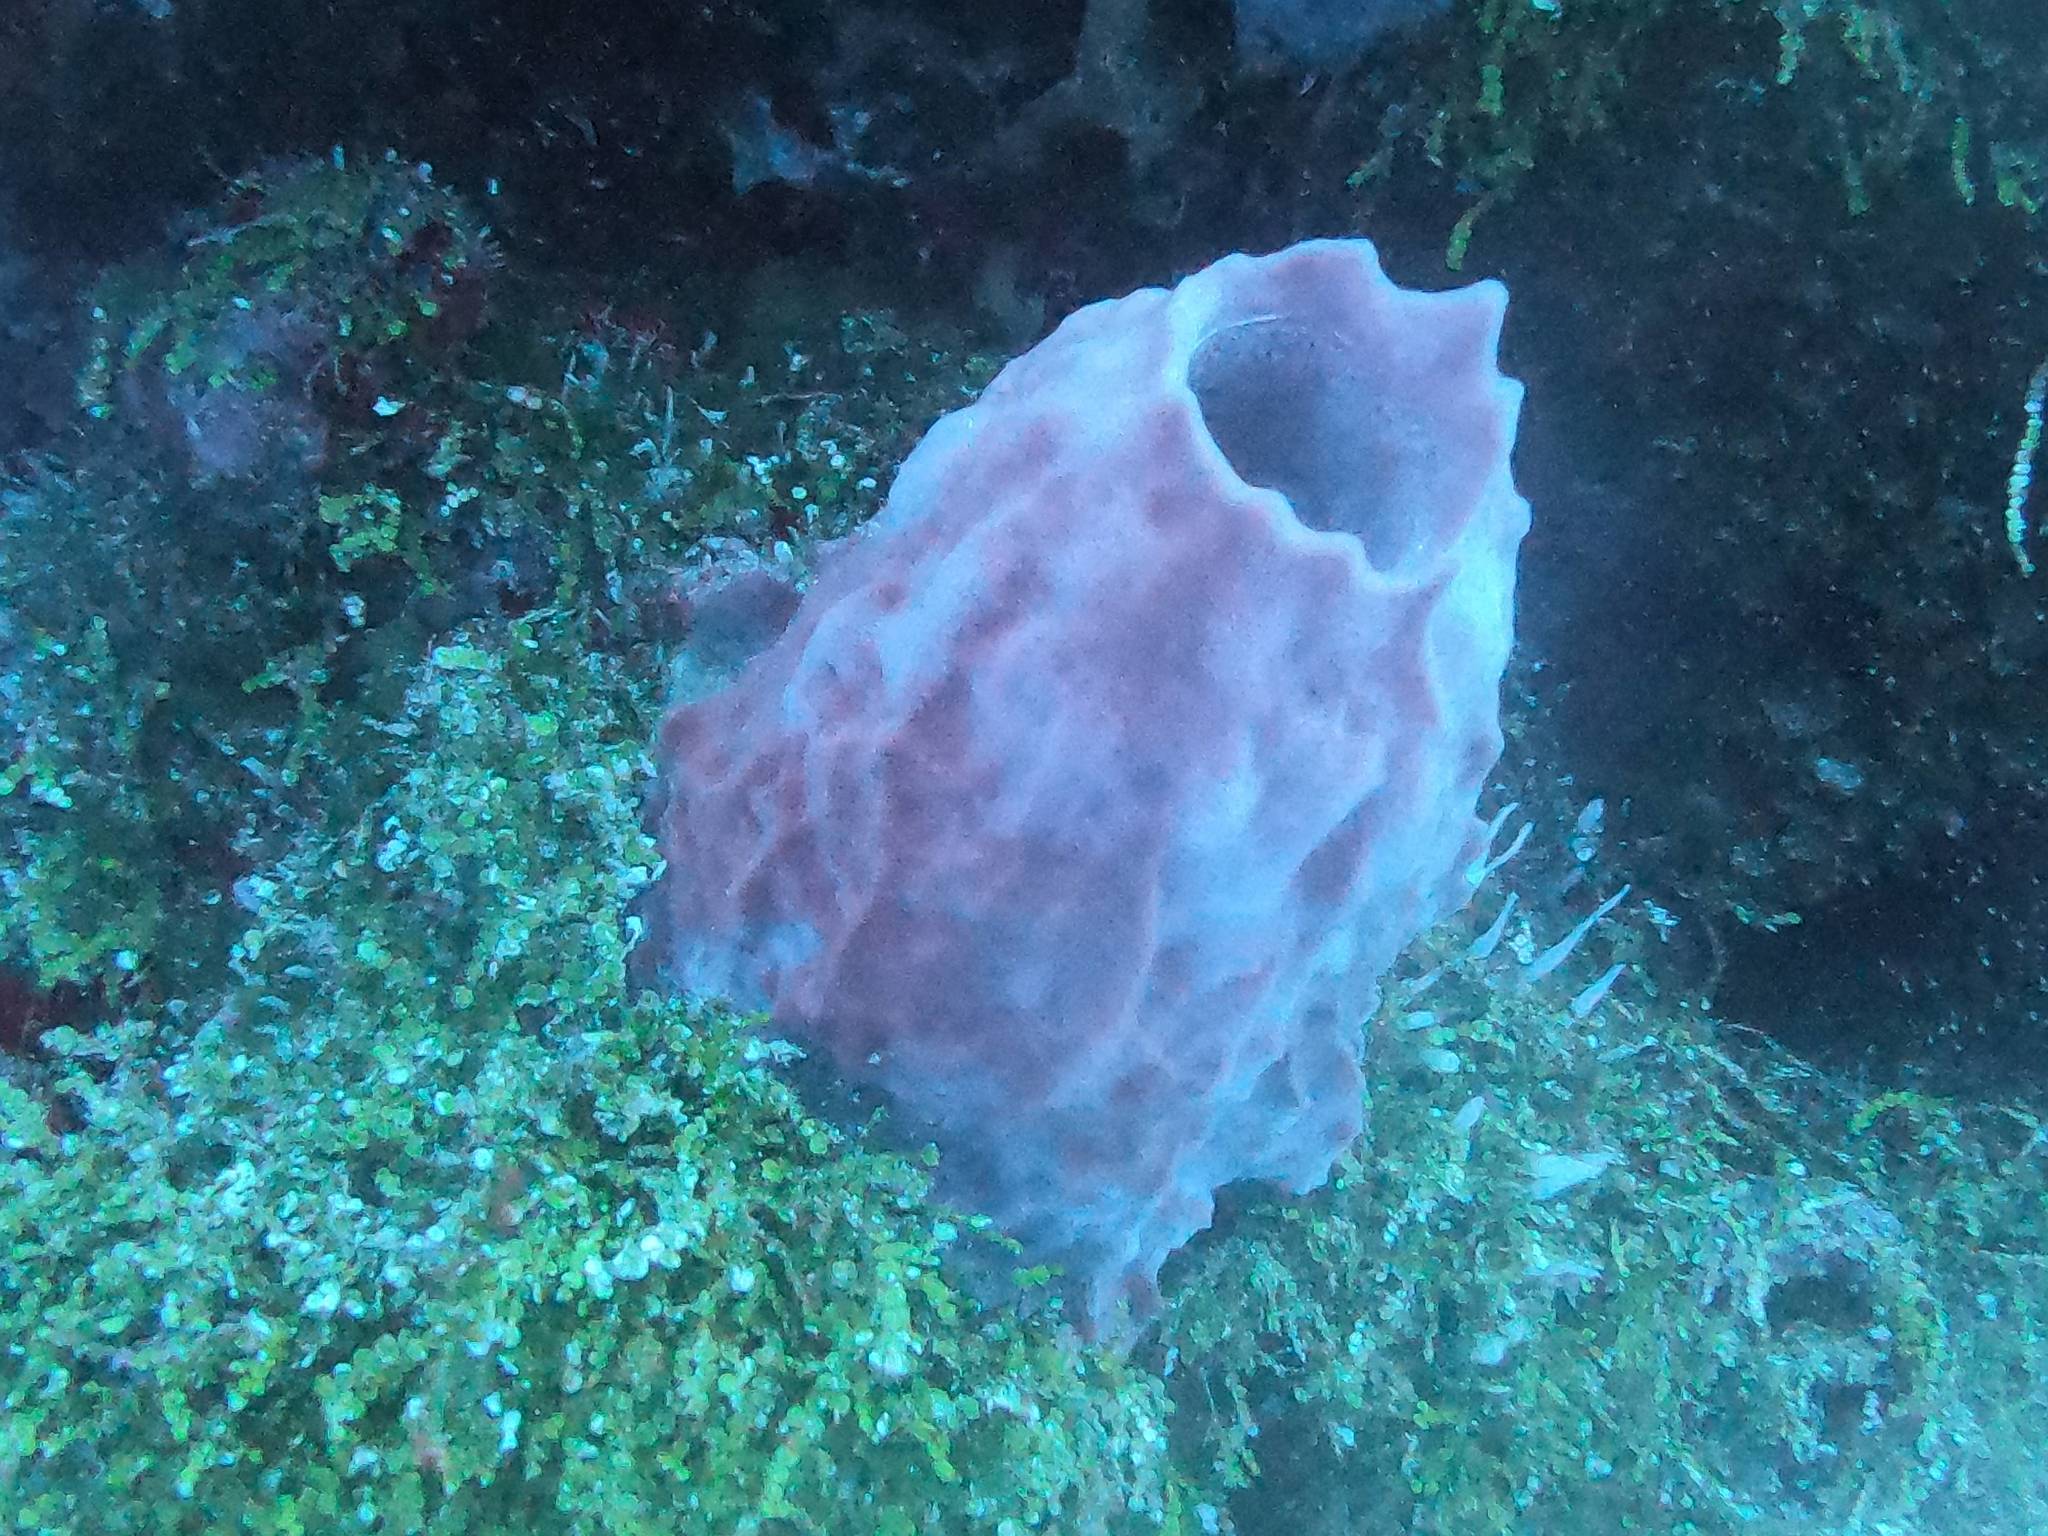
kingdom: Animalia
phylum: Porifera
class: Demospongiae
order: Haplosclerida
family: Petrosiidae
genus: Xestospongia
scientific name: Xestospongia muta
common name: Giant barrel sponge
